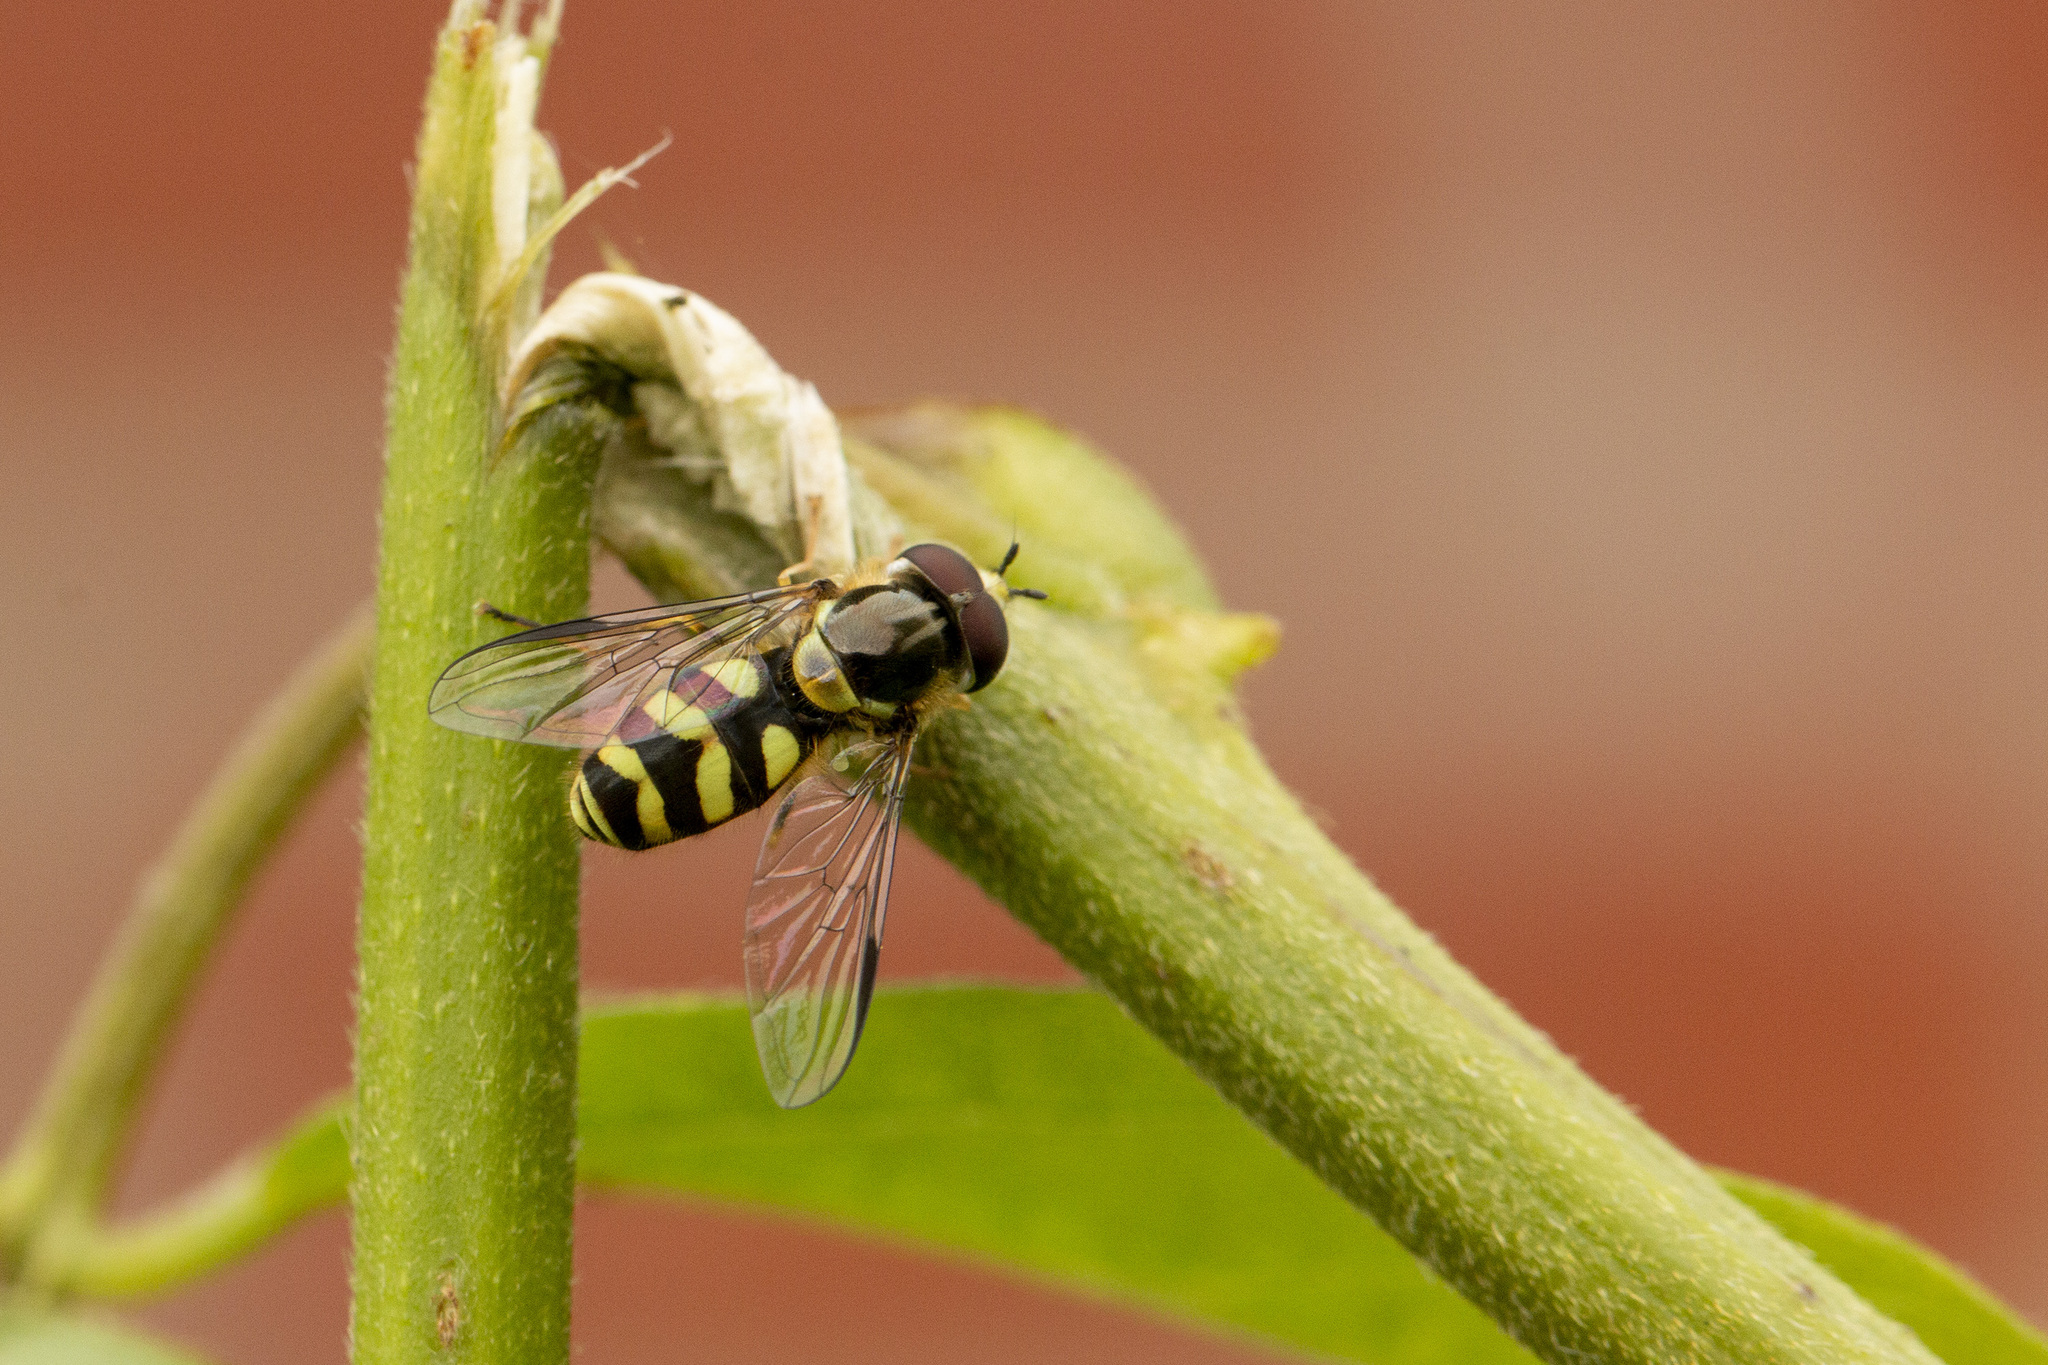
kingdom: Animalia
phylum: Arthropoda
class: Insecta
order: Diptera
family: Syrphidae
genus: Dasysyrphus
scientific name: Dasysyrphus albostriatus
